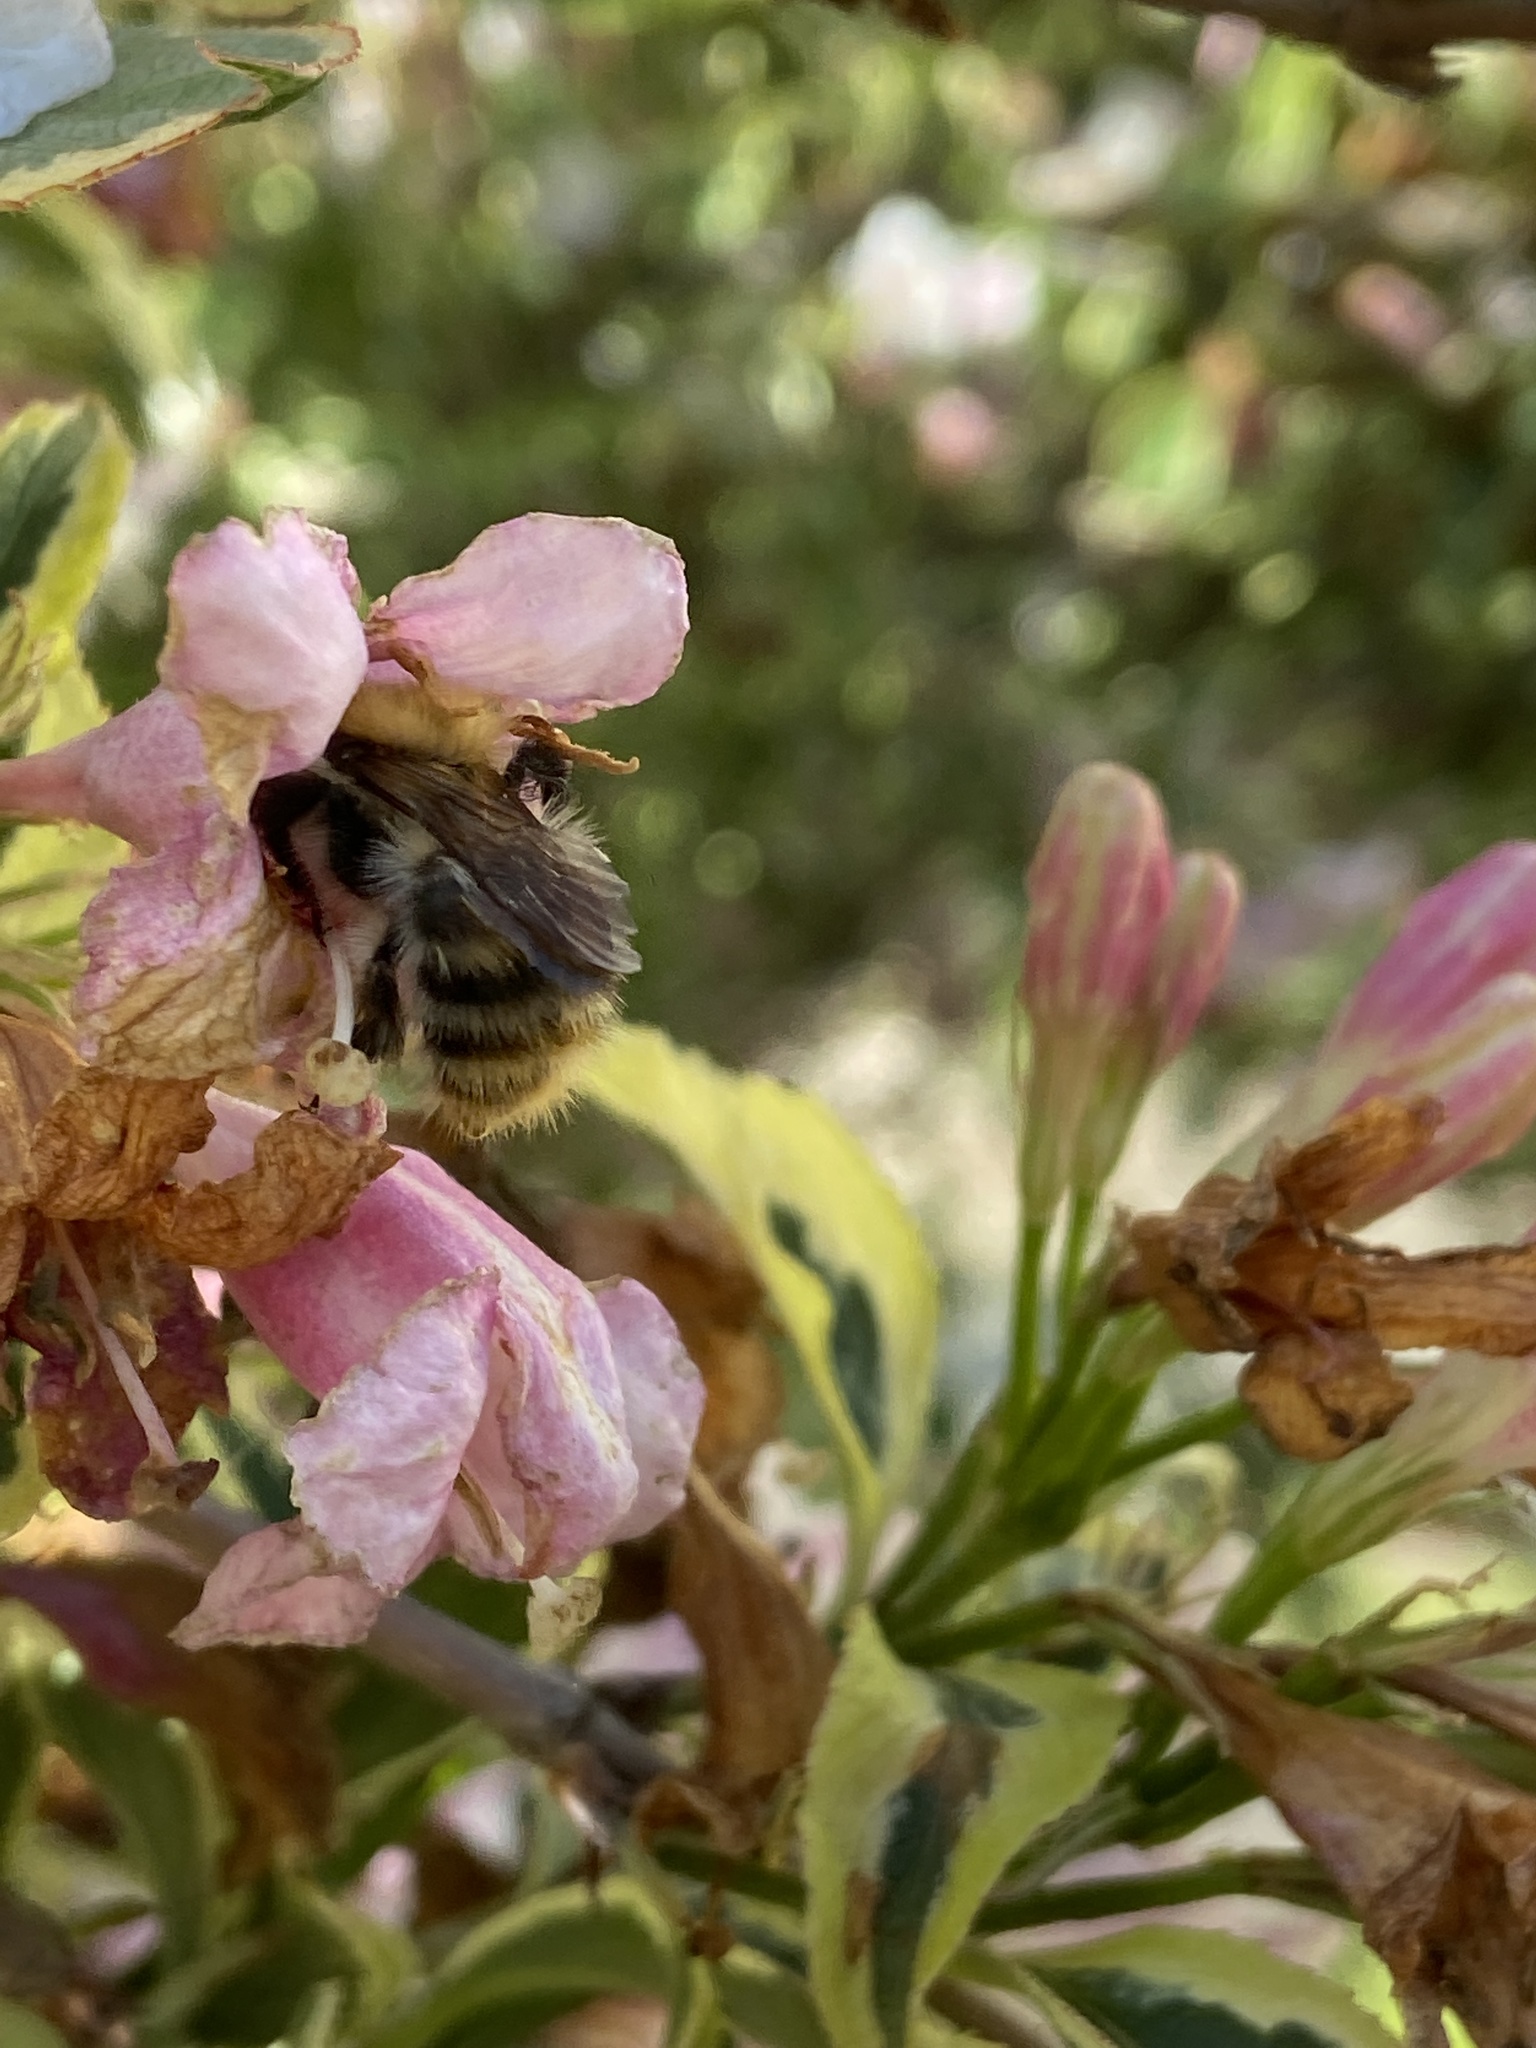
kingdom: Animalia
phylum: Arthropoda
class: Insecta
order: Hymenoptera
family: Apidae
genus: Bombus
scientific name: Bombus pascuorum
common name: Common carder bee
